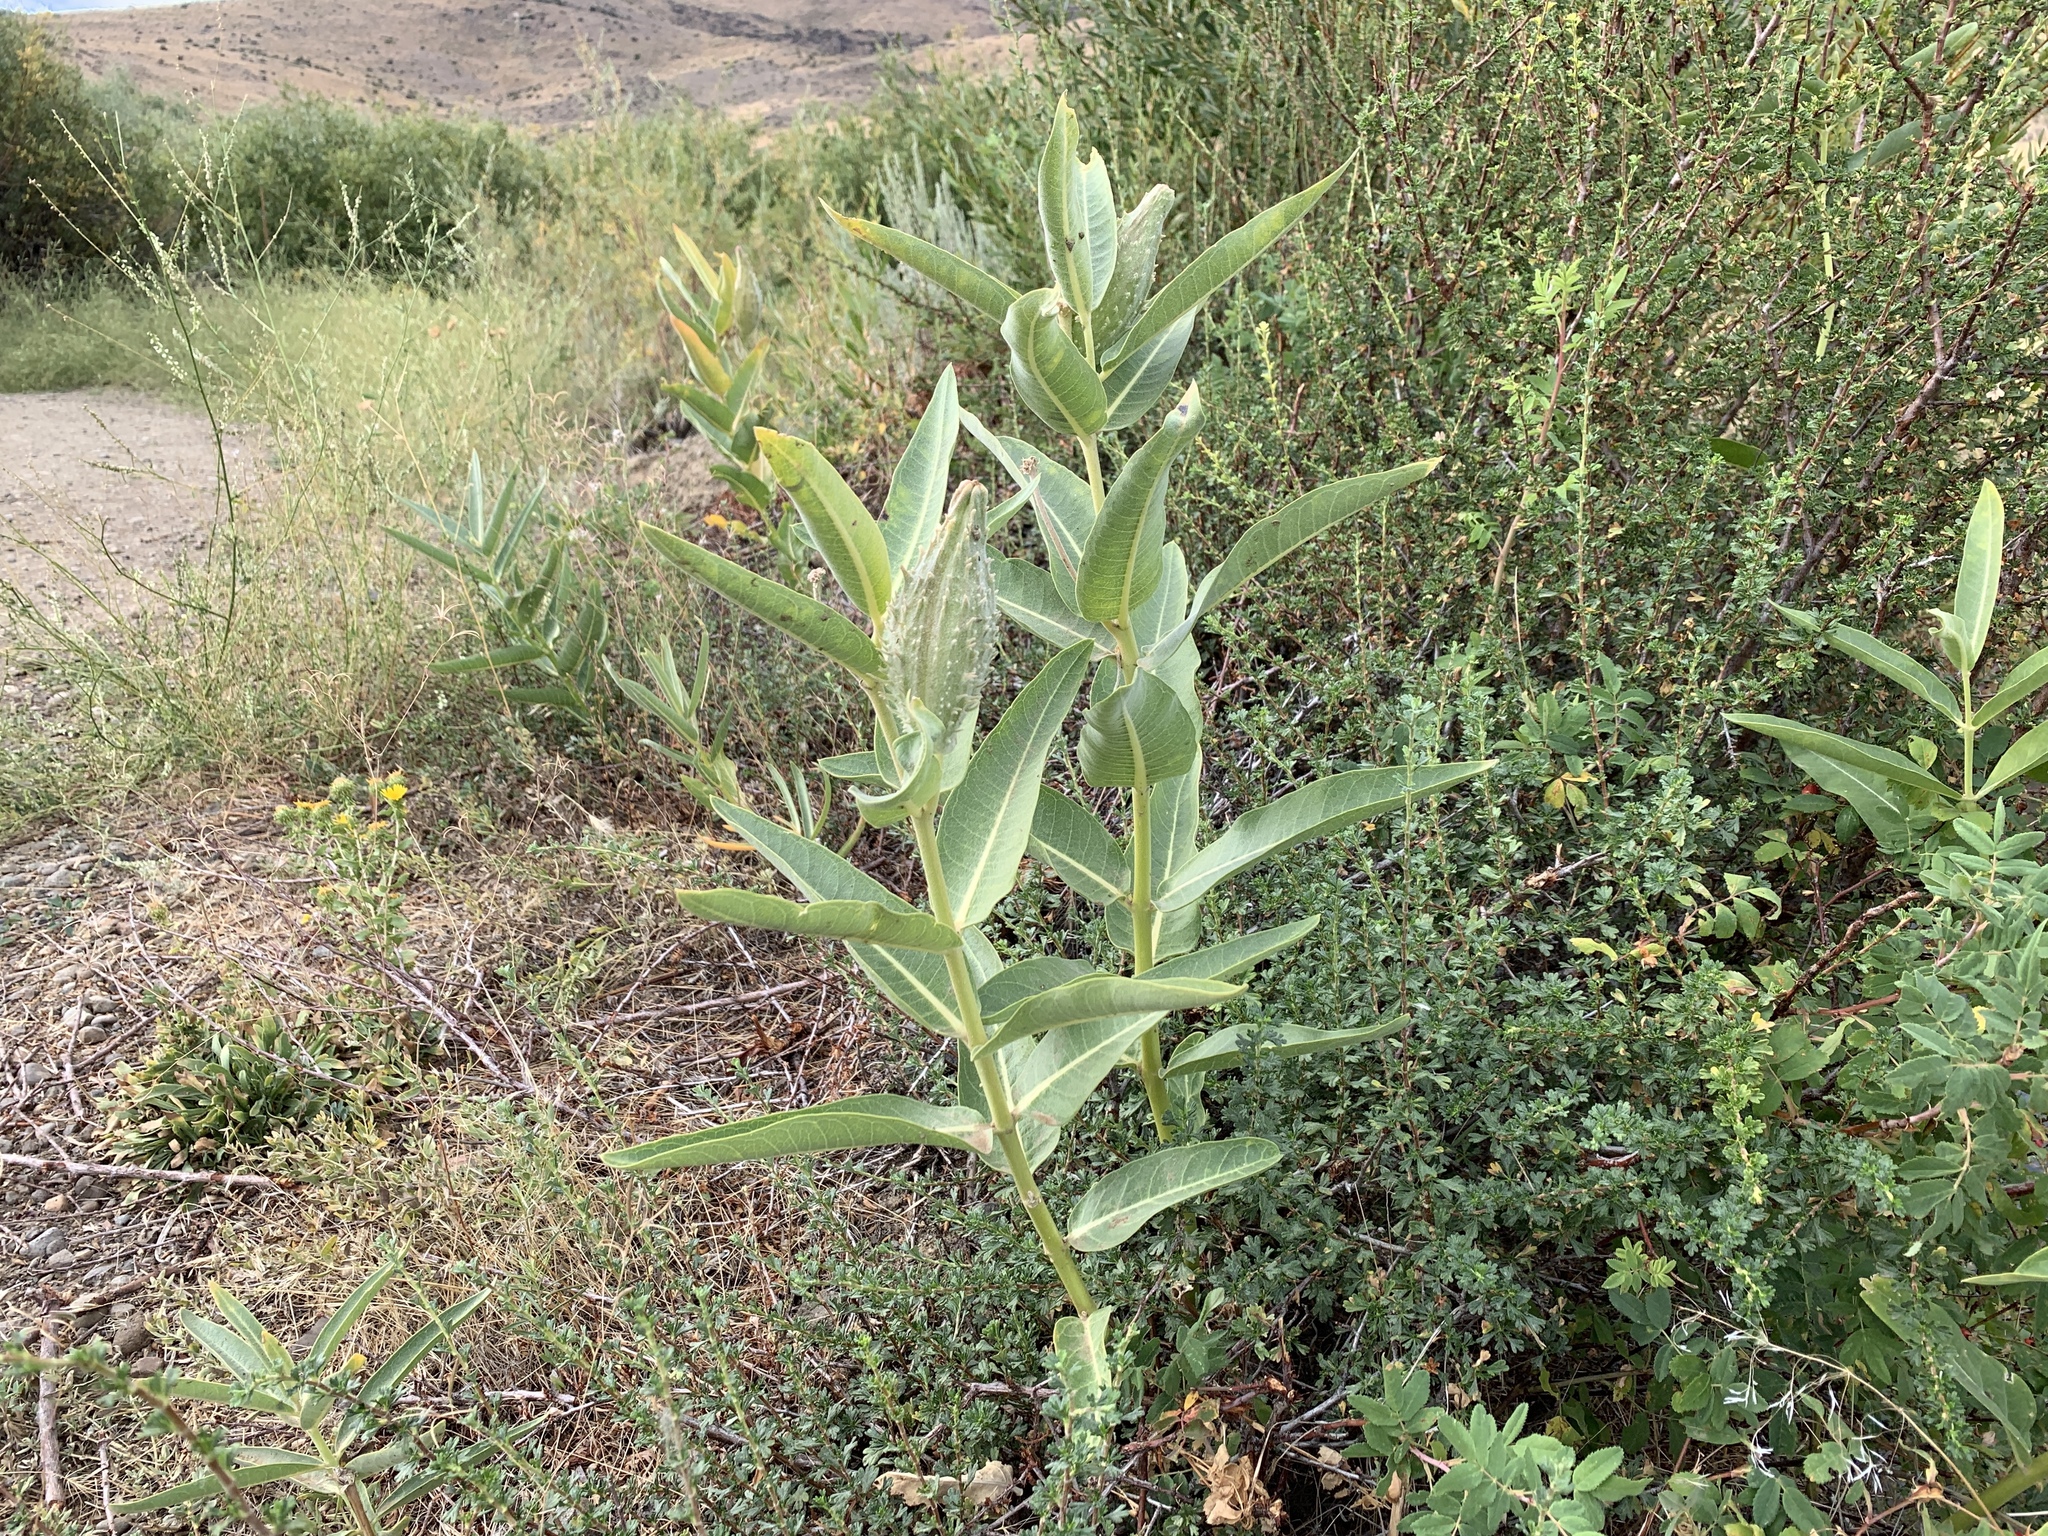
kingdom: Plantae
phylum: Tracheophyta
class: Magnoliopsida
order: Gentianales
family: Apocynaceae
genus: Asclepias
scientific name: Asclepias speciosa
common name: Showy milkweed
